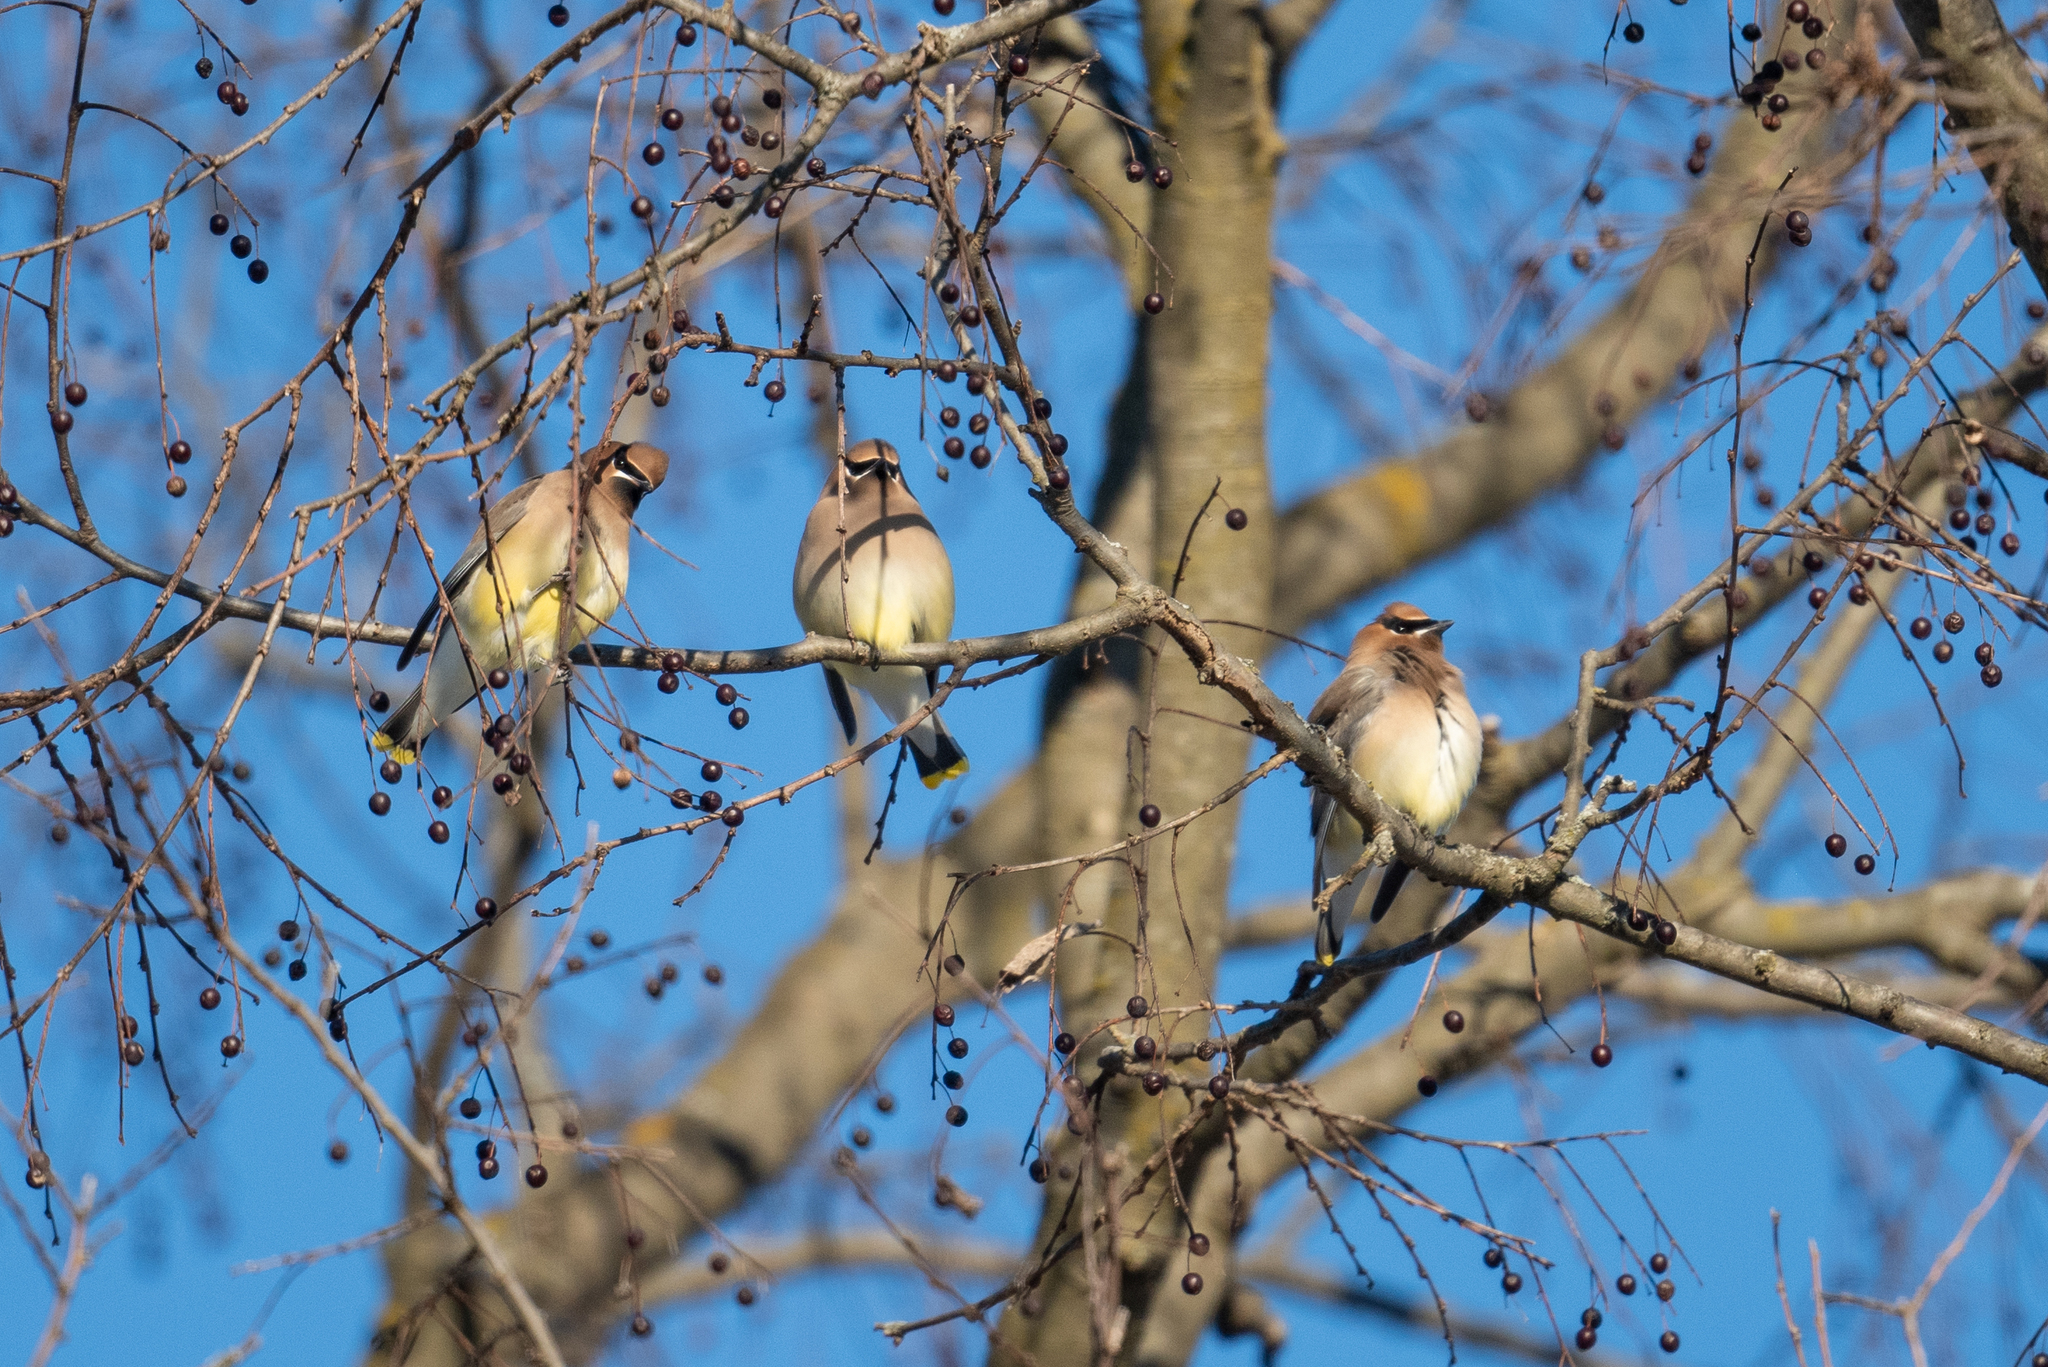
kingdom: Animalia
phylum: Chordata
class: Aves
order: Passeriformes
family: Bombycillidae
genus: Bombycilla
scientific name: Bombycilla cedrorum
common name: Cedar waxwing
